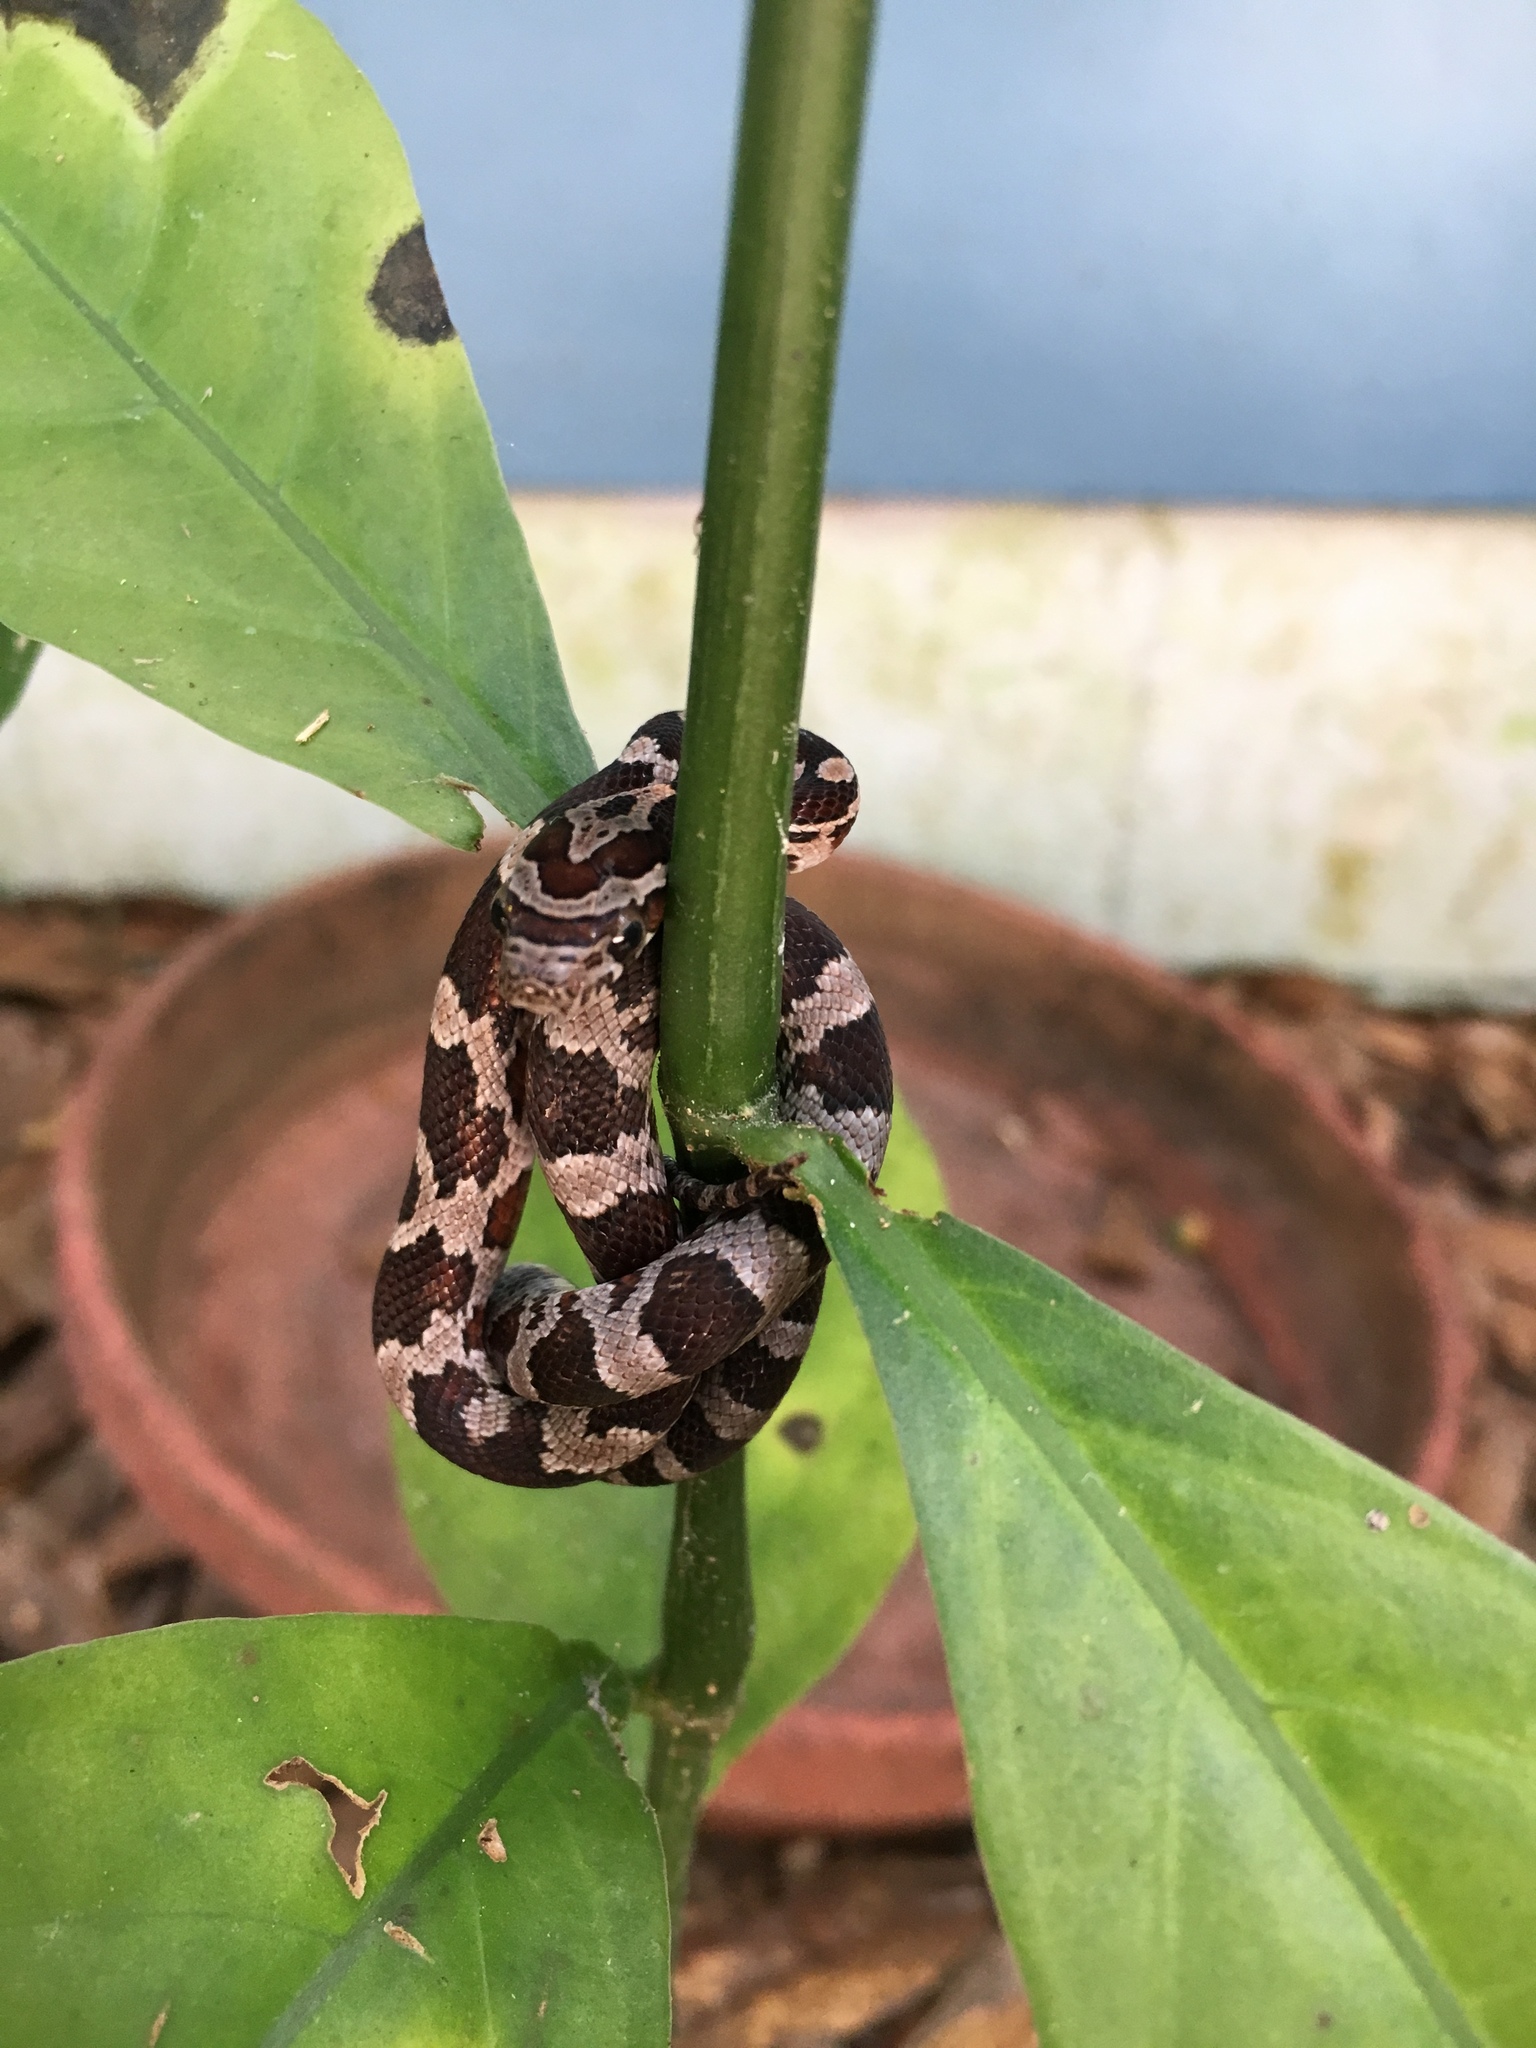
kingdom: Animalia
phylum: Chordata
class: Squamata
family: Colubridae
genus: Pantherophis
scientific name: Pantherophis guttatus
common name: Red cornsnake
